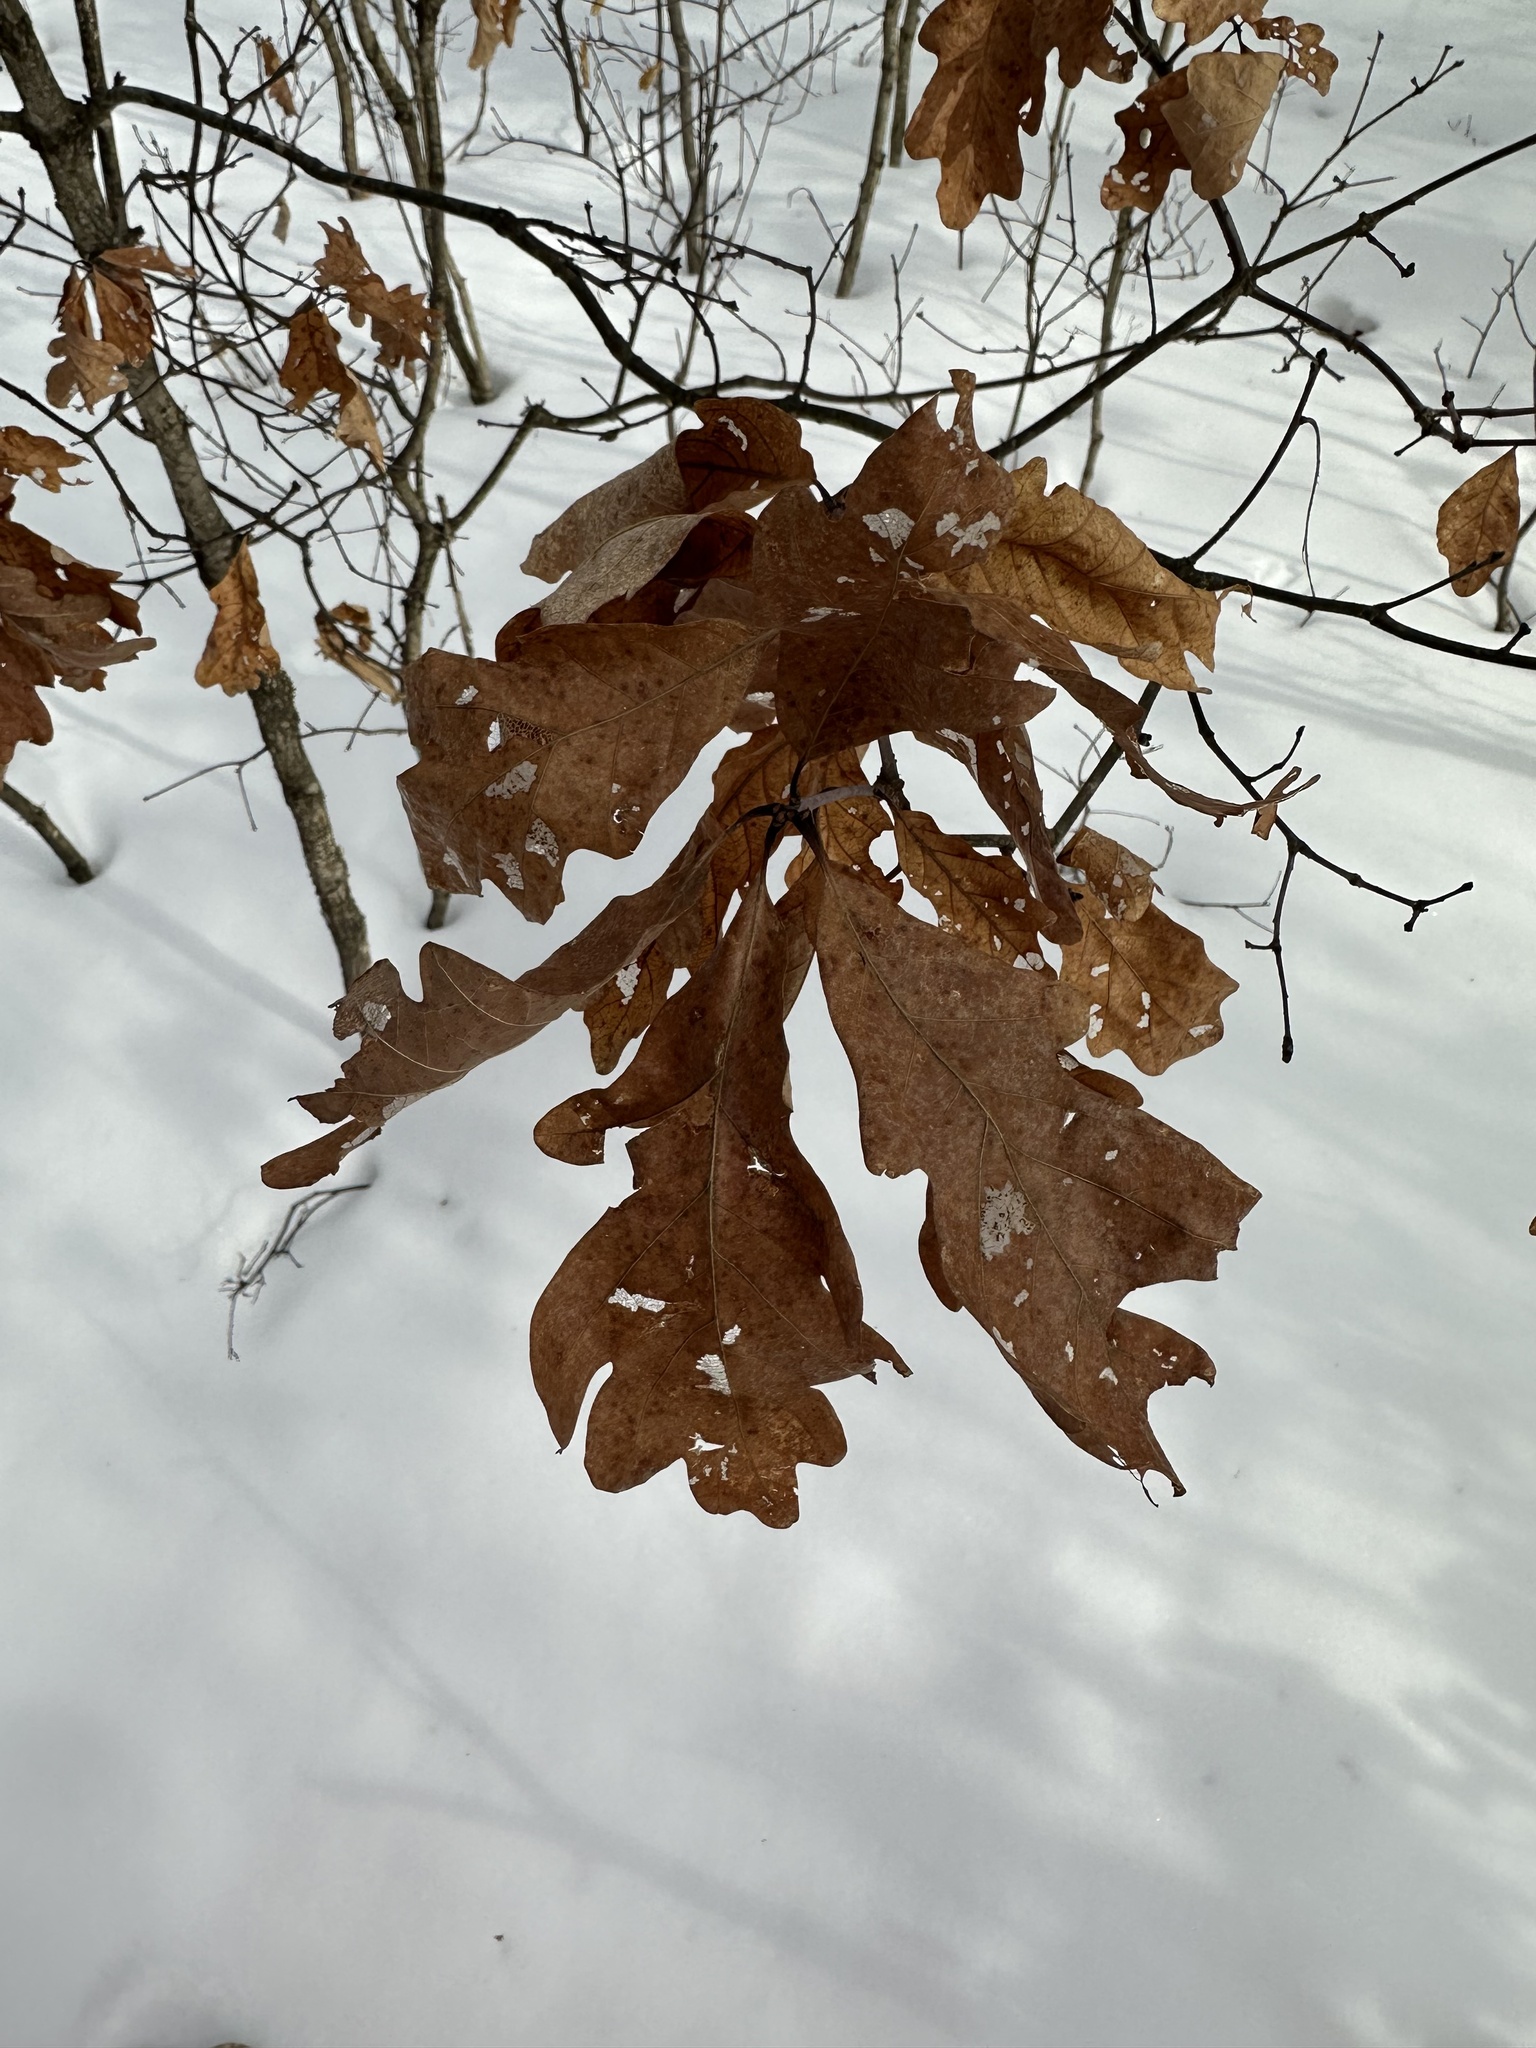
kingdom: Plantae
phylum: Tracheophyta
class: Magnoliopsida
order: Fagales
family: Fagaceae
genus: Quercus
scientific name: Quercus alba
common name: White oak
